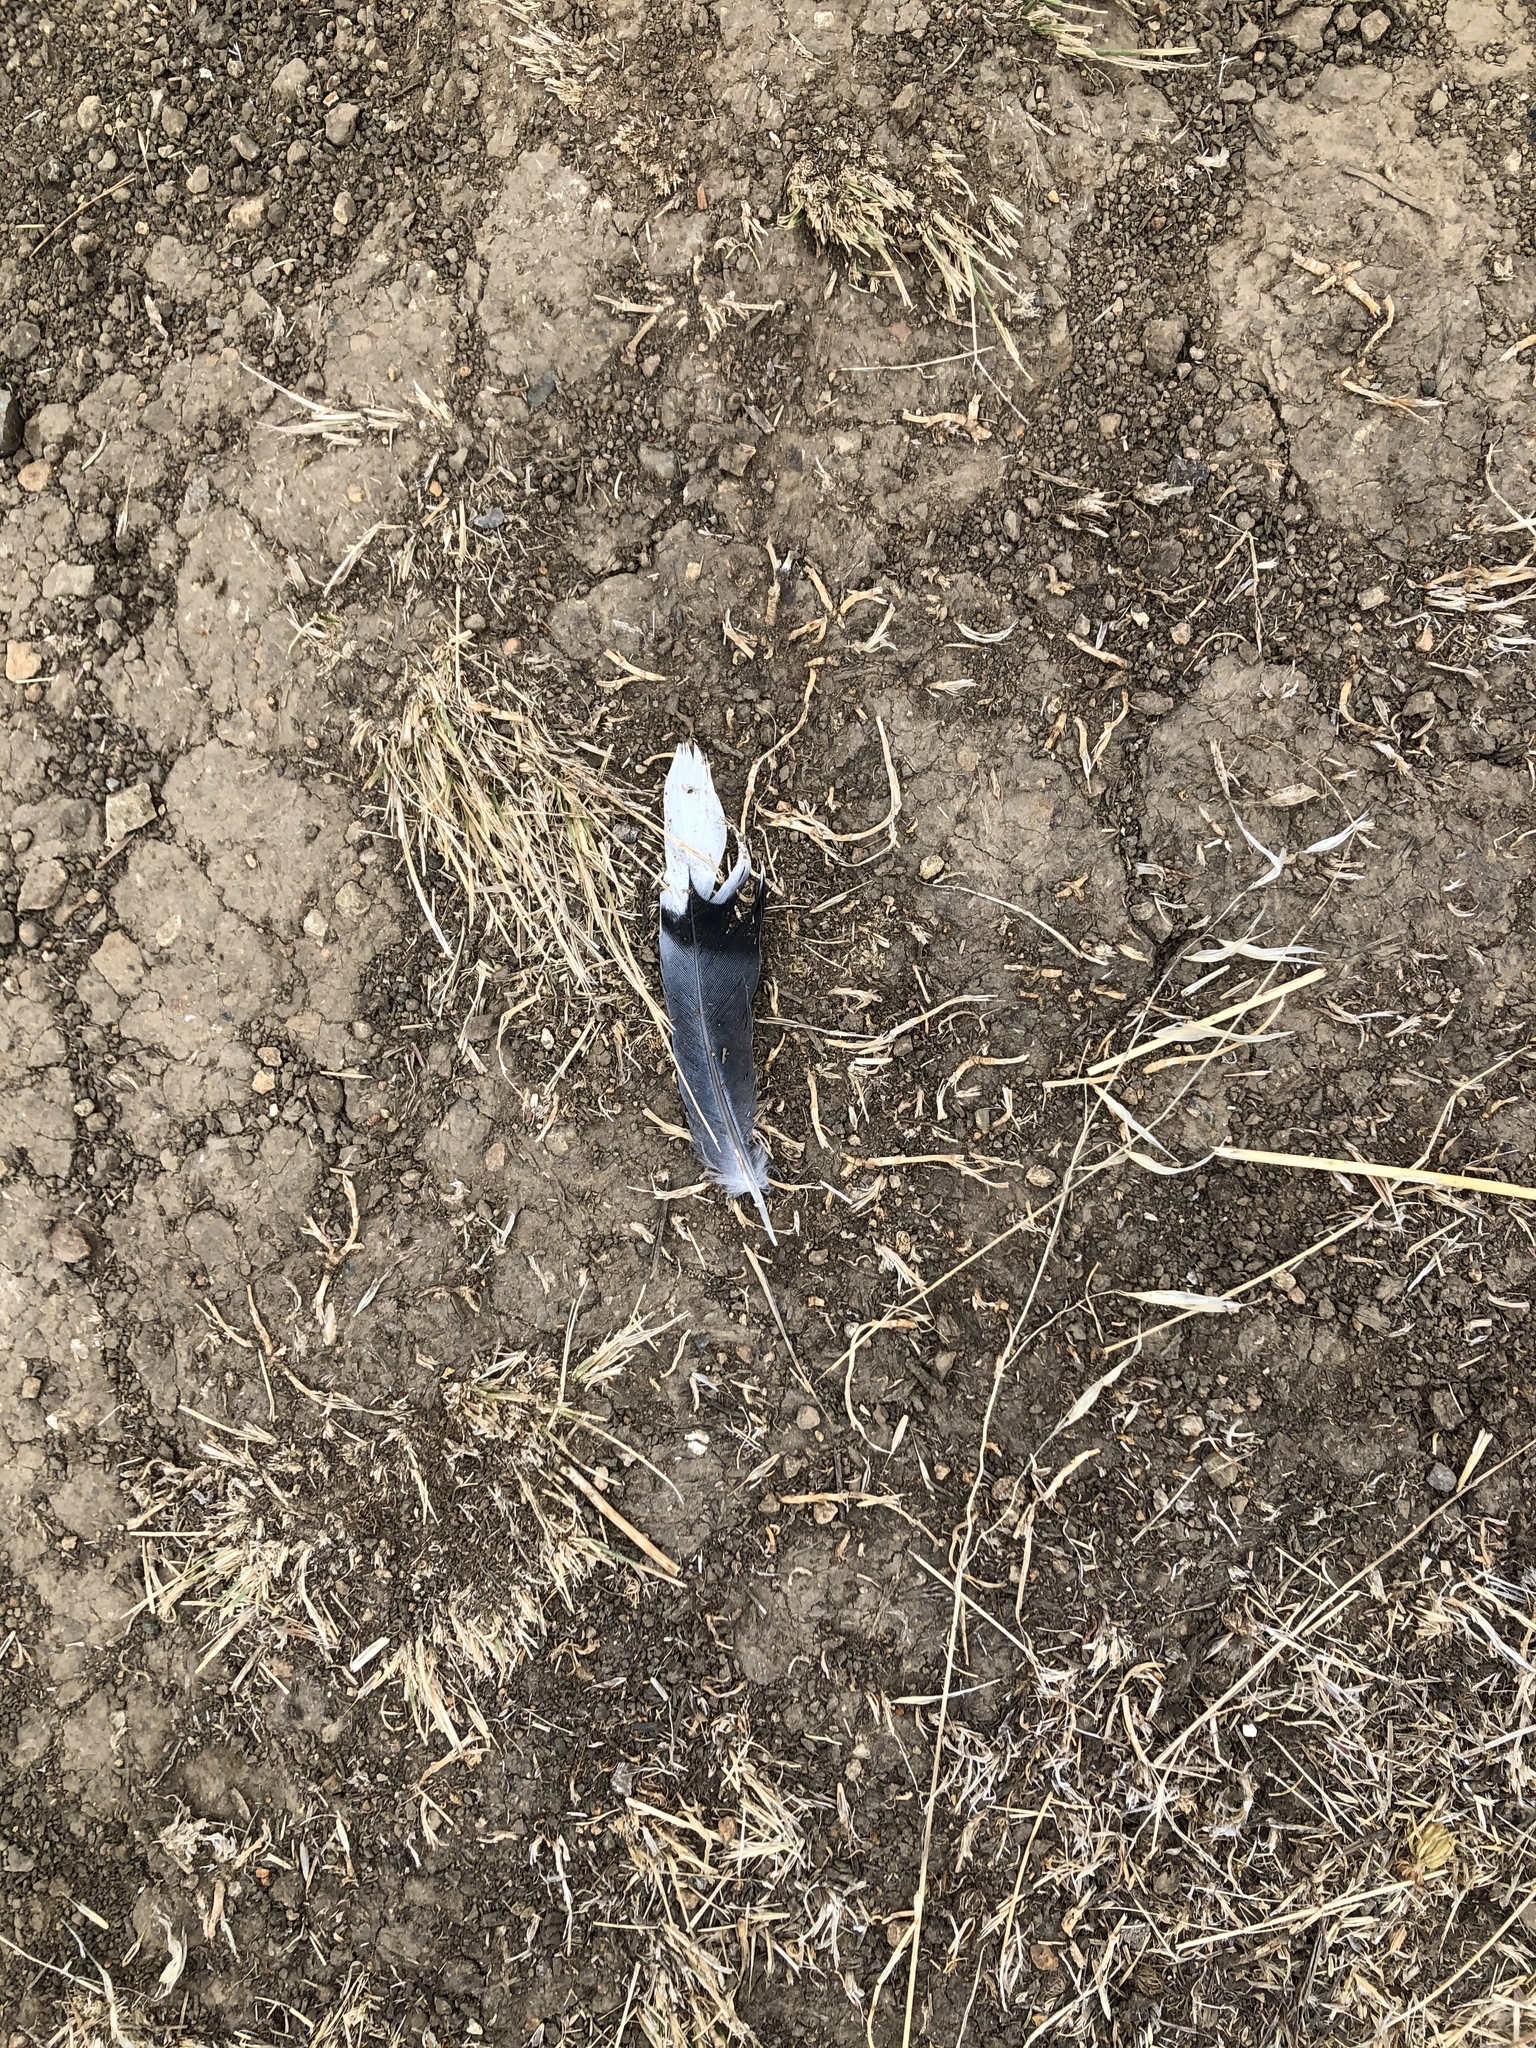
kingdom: Animalia
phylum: Chordata
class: Aves
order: Columbiformes
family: Columbidae
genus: Zenaida
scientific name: Zenaida macroura
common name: Mourning dove
